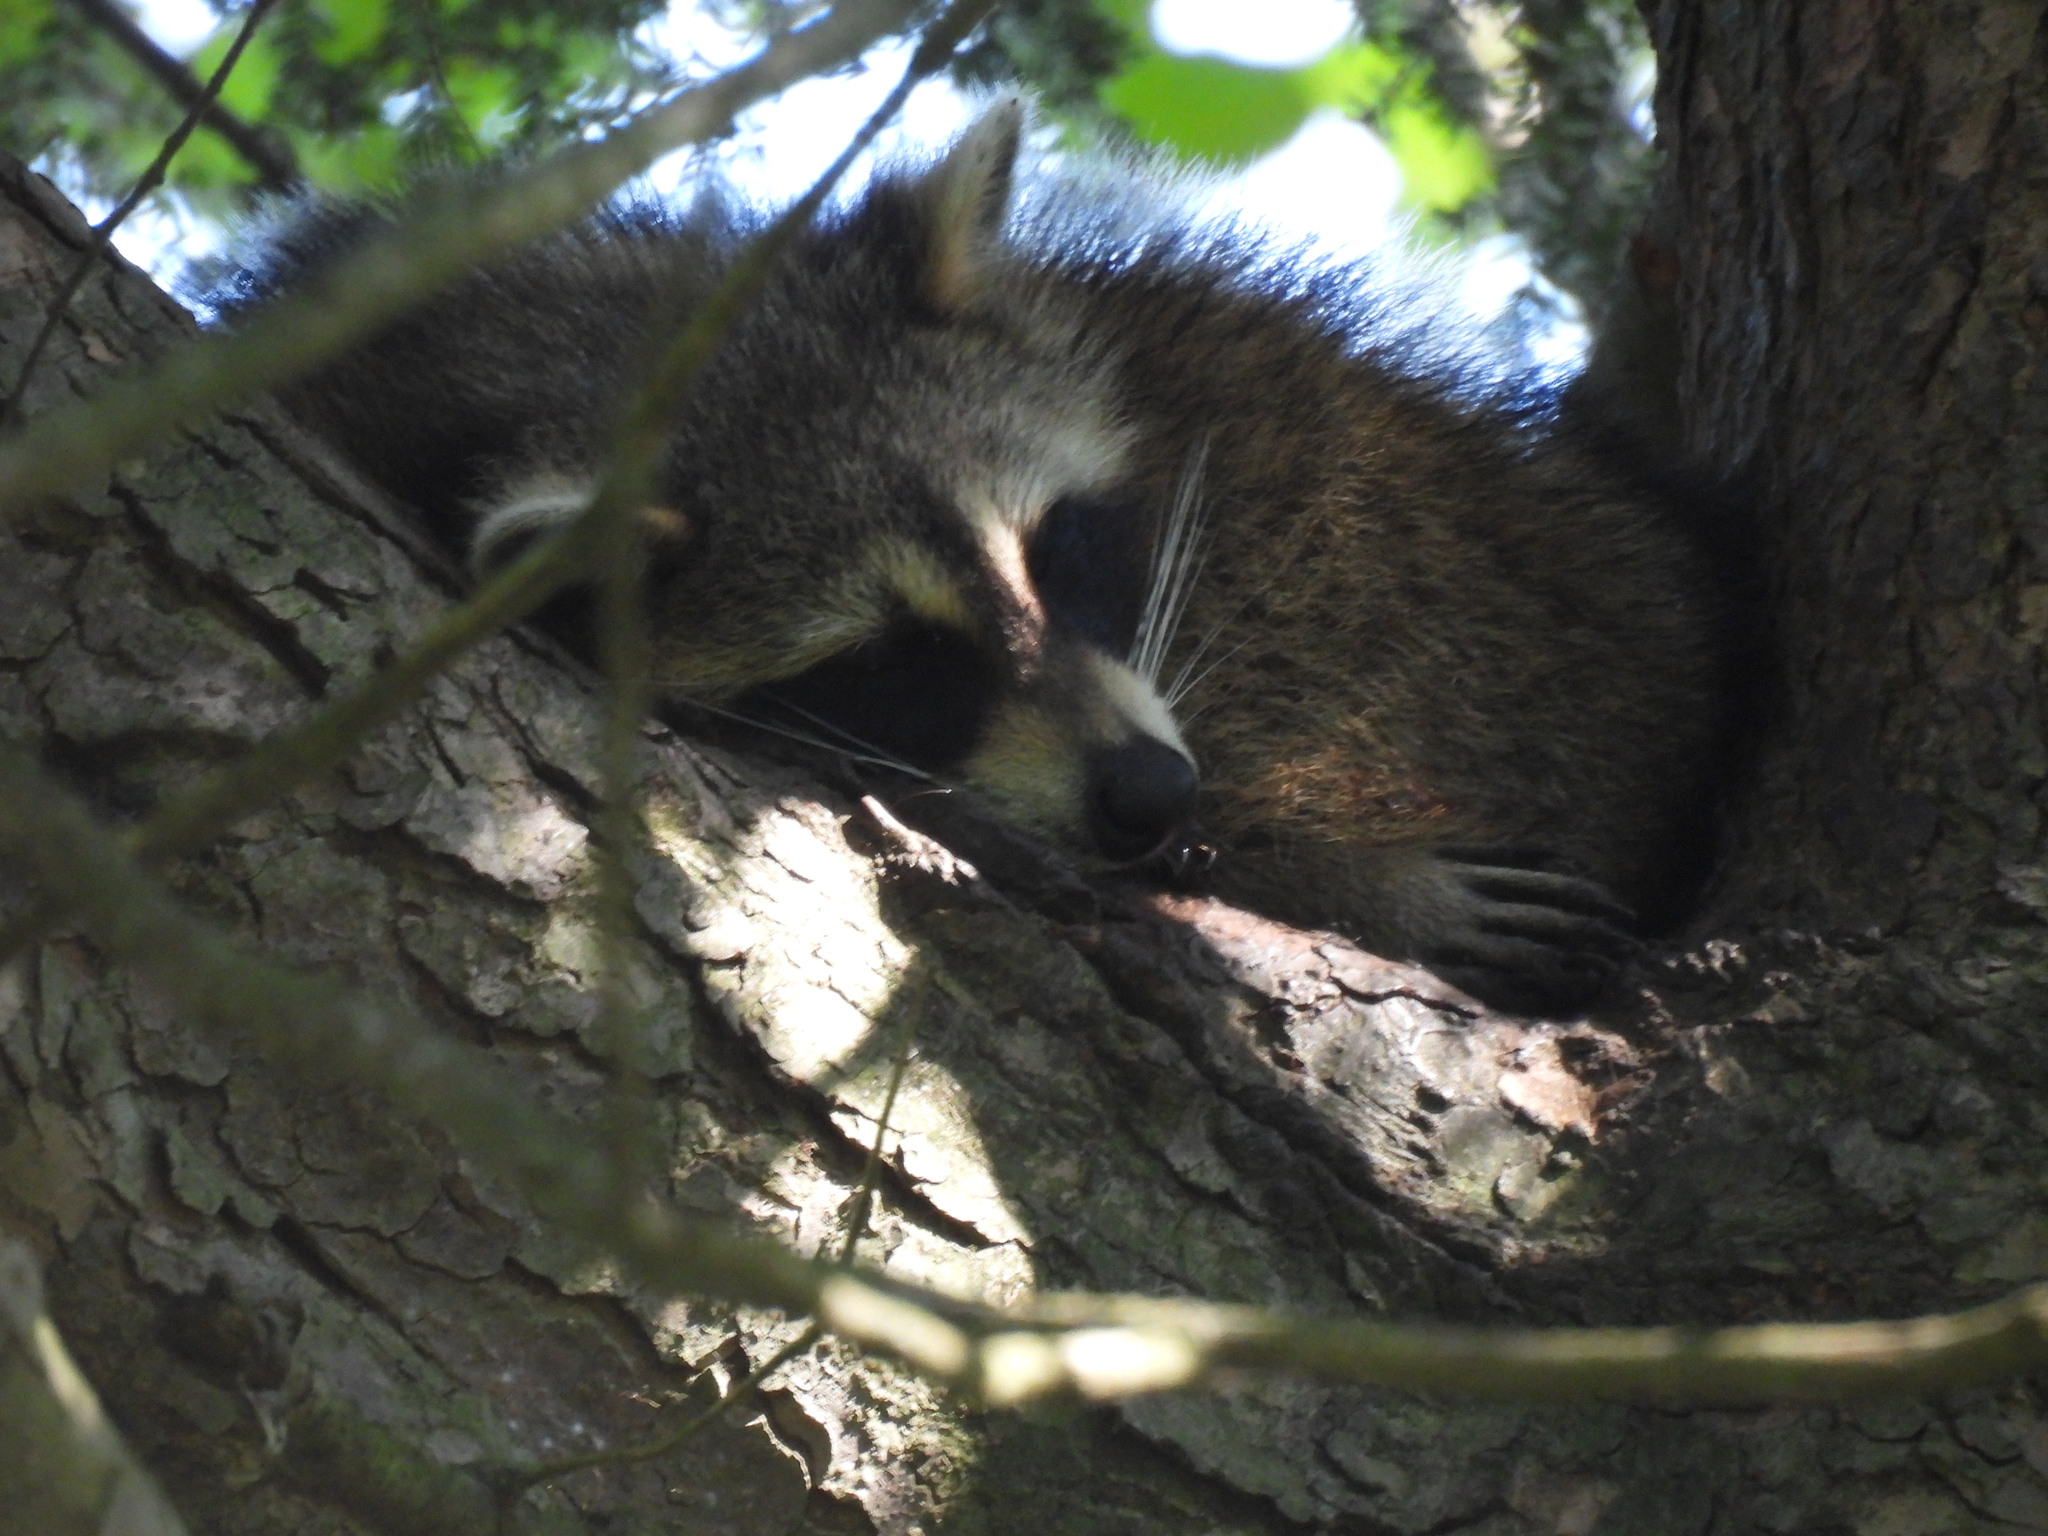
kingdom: Animalia
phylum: Chordata
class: Mammalia
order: Carnivora
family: Procyonidae
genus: Procyon
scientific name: Procyon lotor
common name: Raccoon
